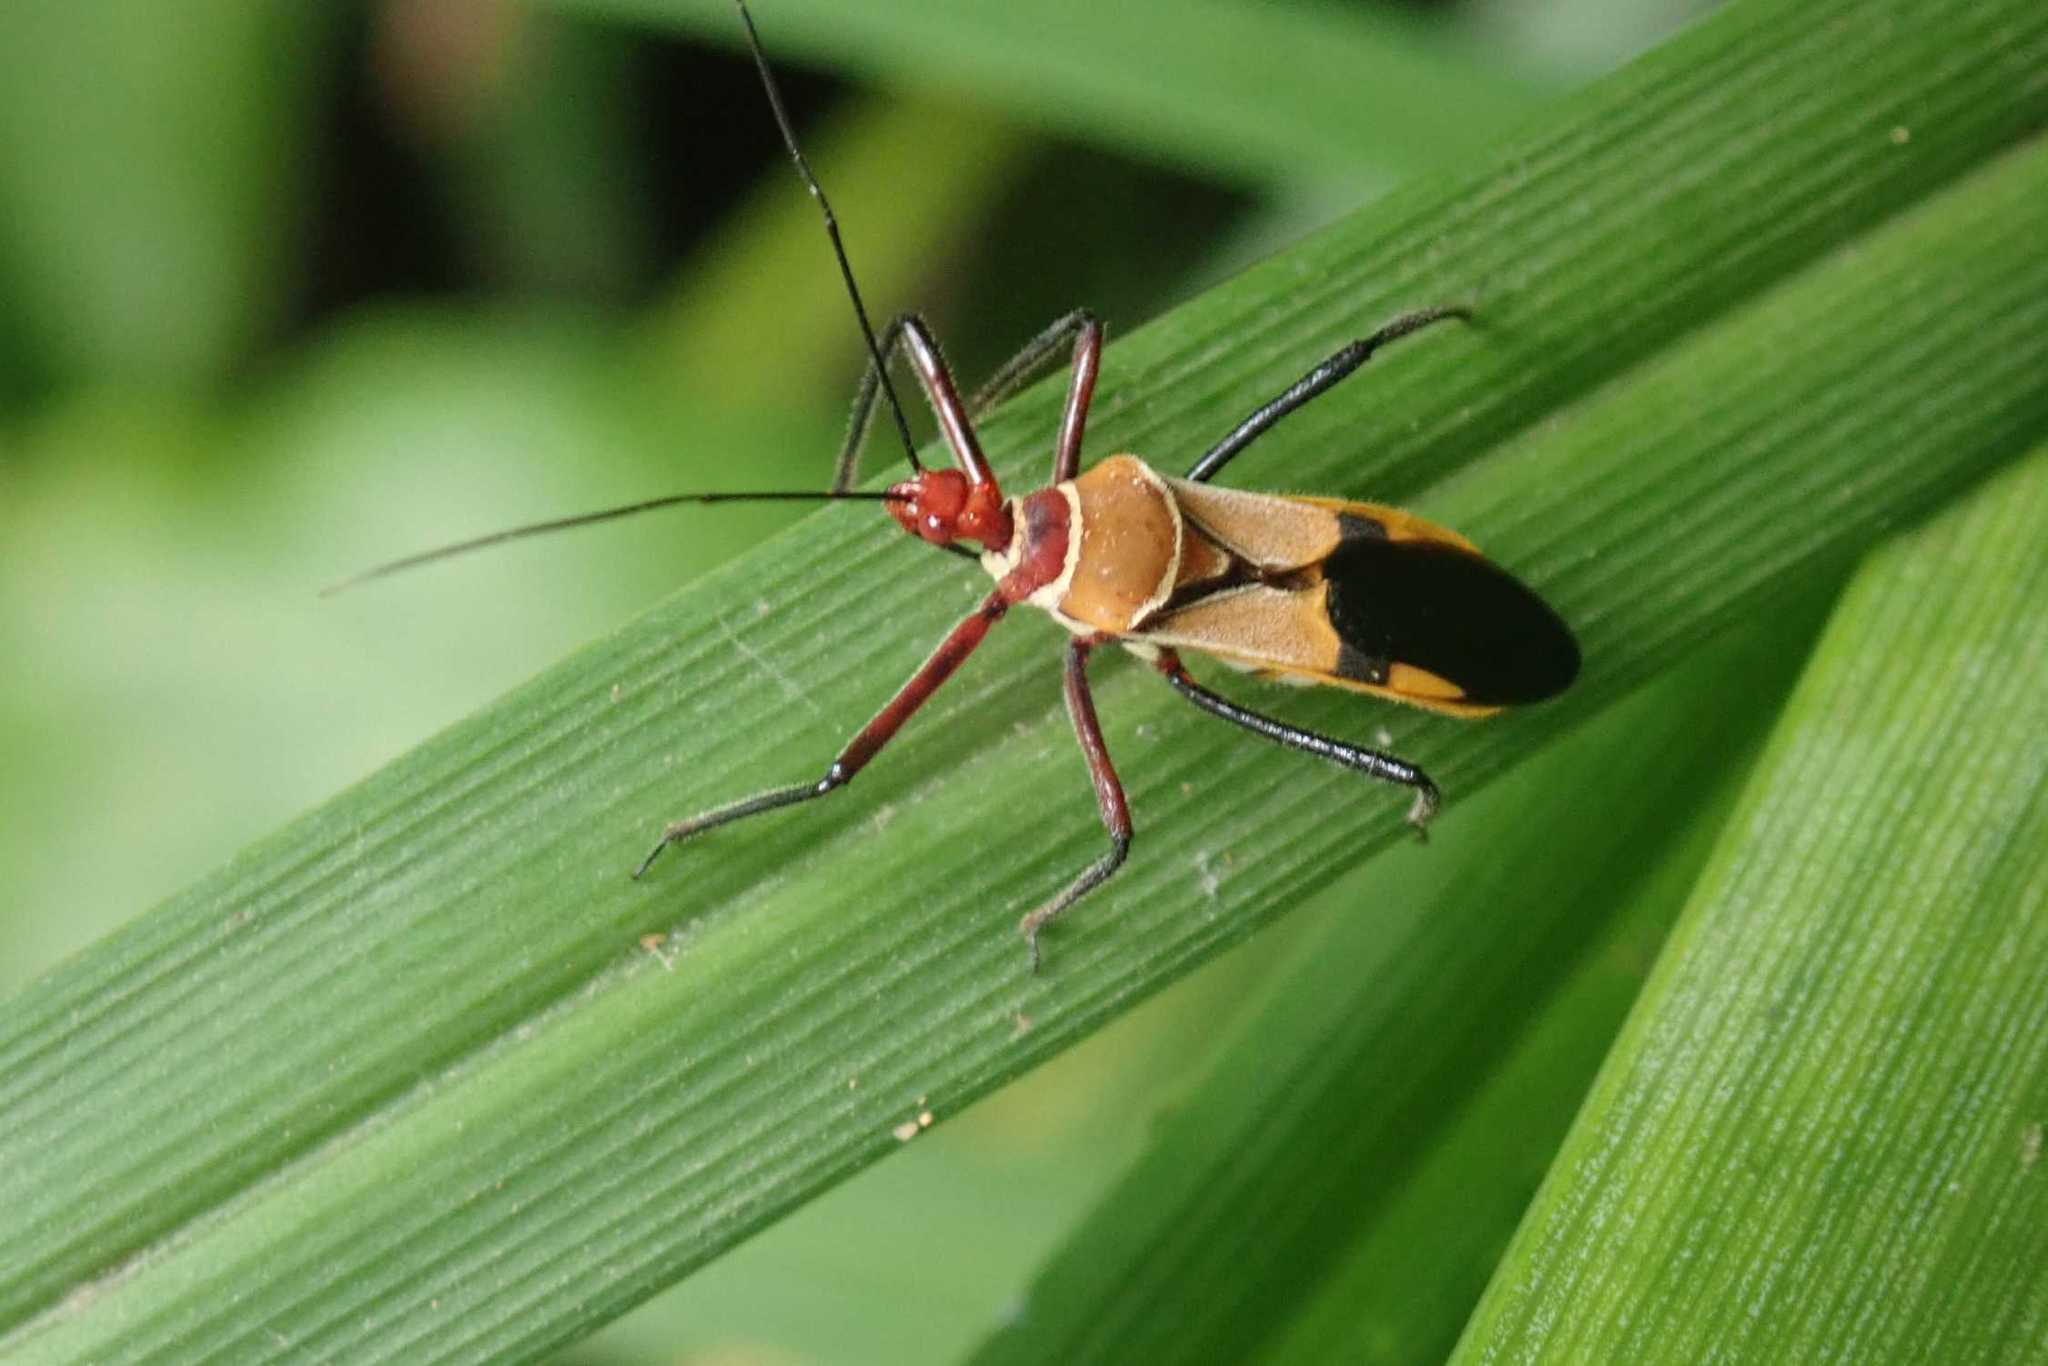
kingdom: Animalia
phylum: Arthropoda
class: Insecta
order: Hemiptera
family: Reduviidae
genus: Hediocoris
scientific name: Hediocoris tibialis
